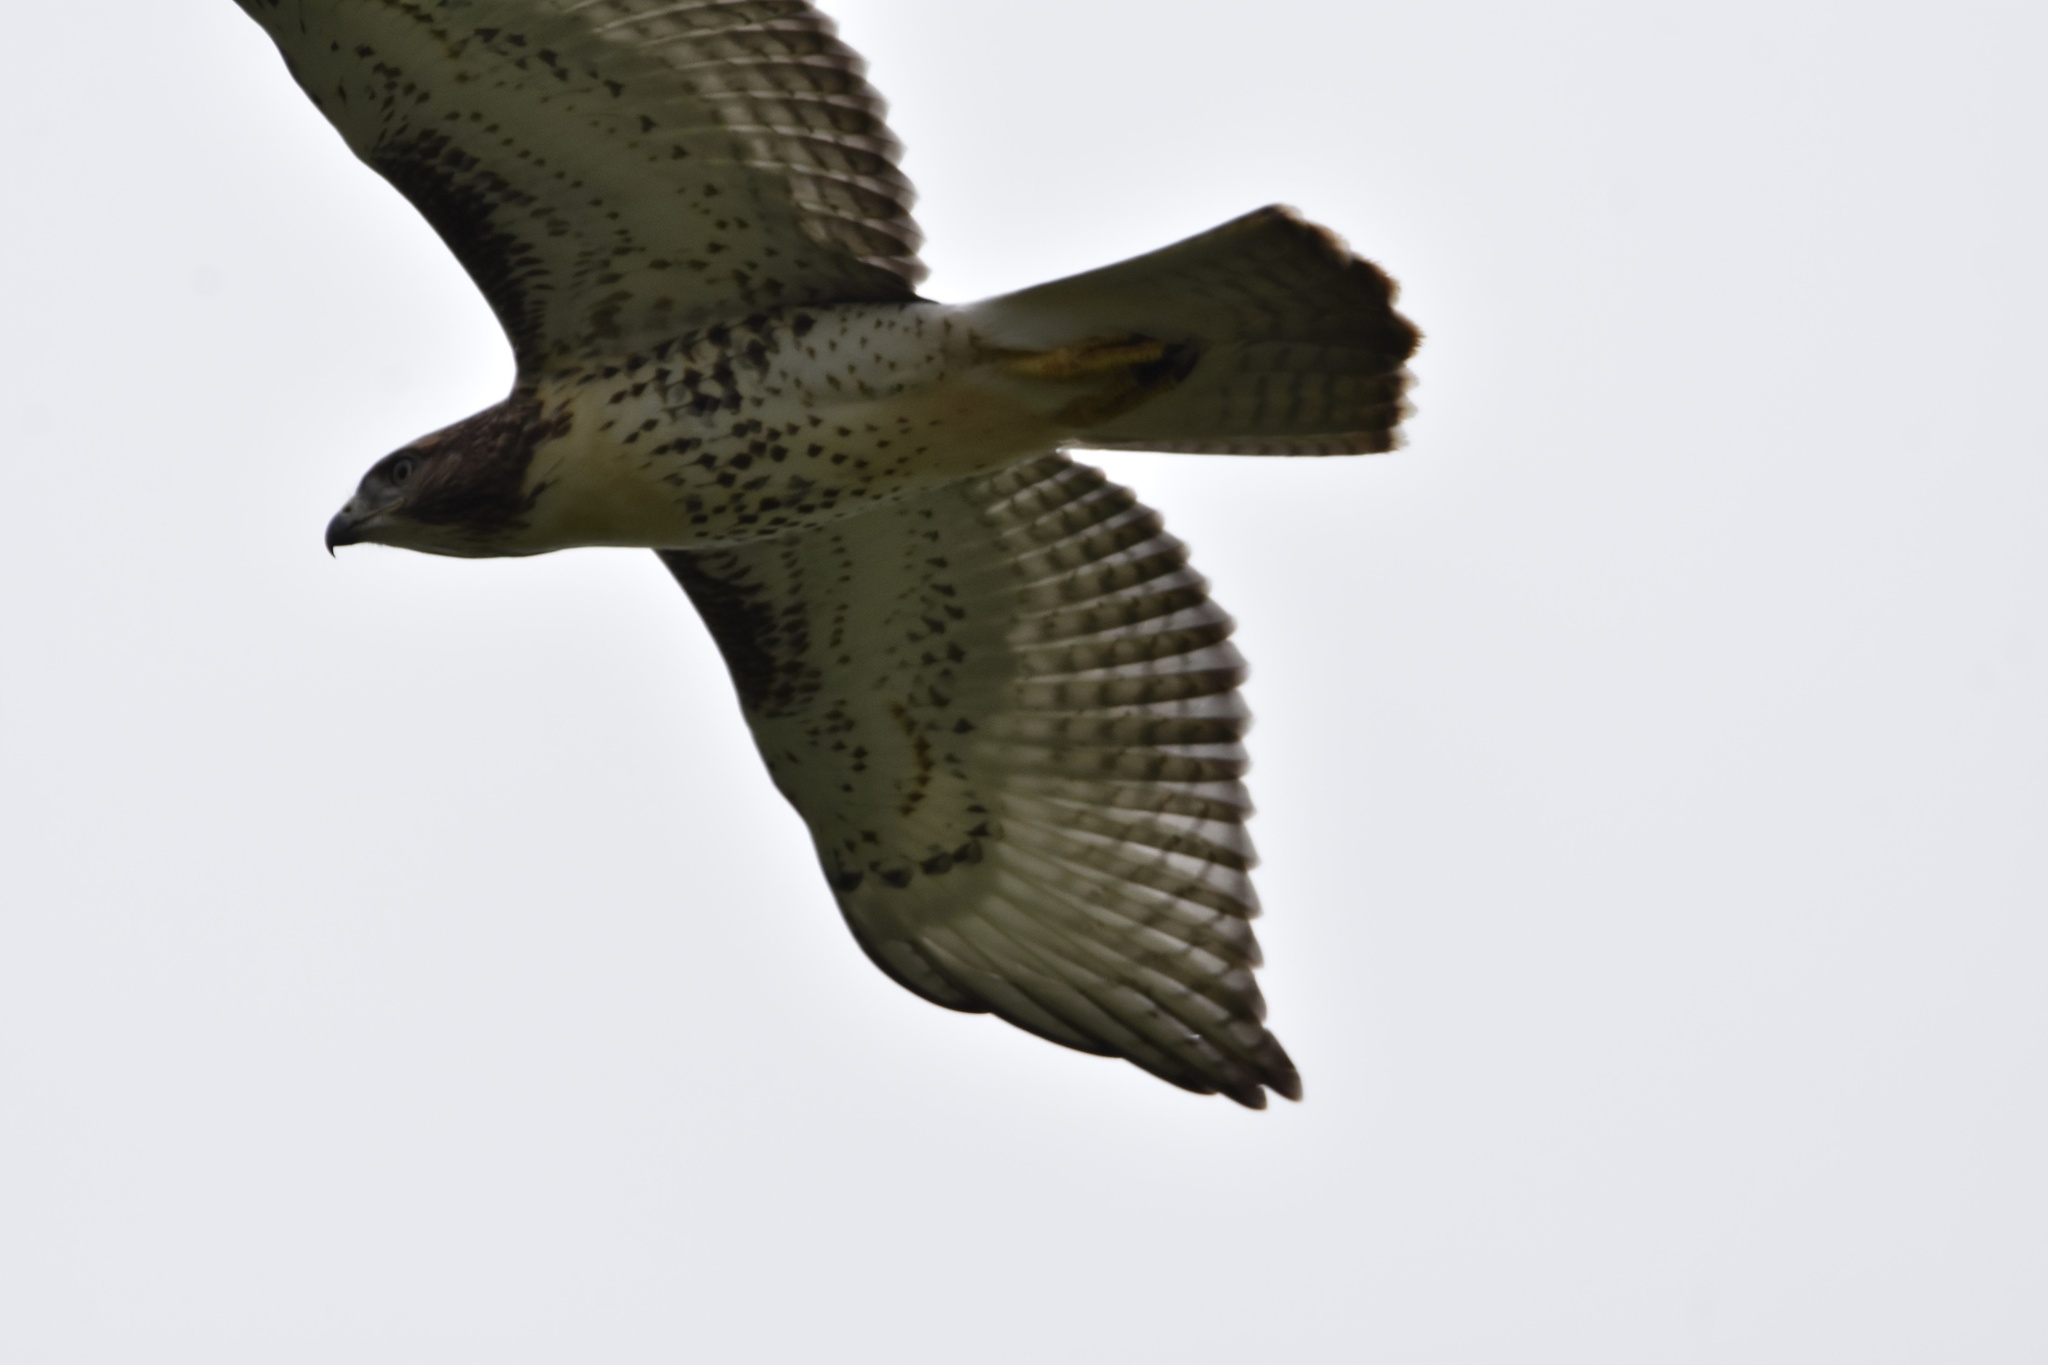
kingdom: Animalia
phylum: Chordata
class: Aves
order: Accipitriformes
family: Accipitridae
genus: Buteo
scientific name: Buteo jamaicensis
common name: Red-tailed hawk
